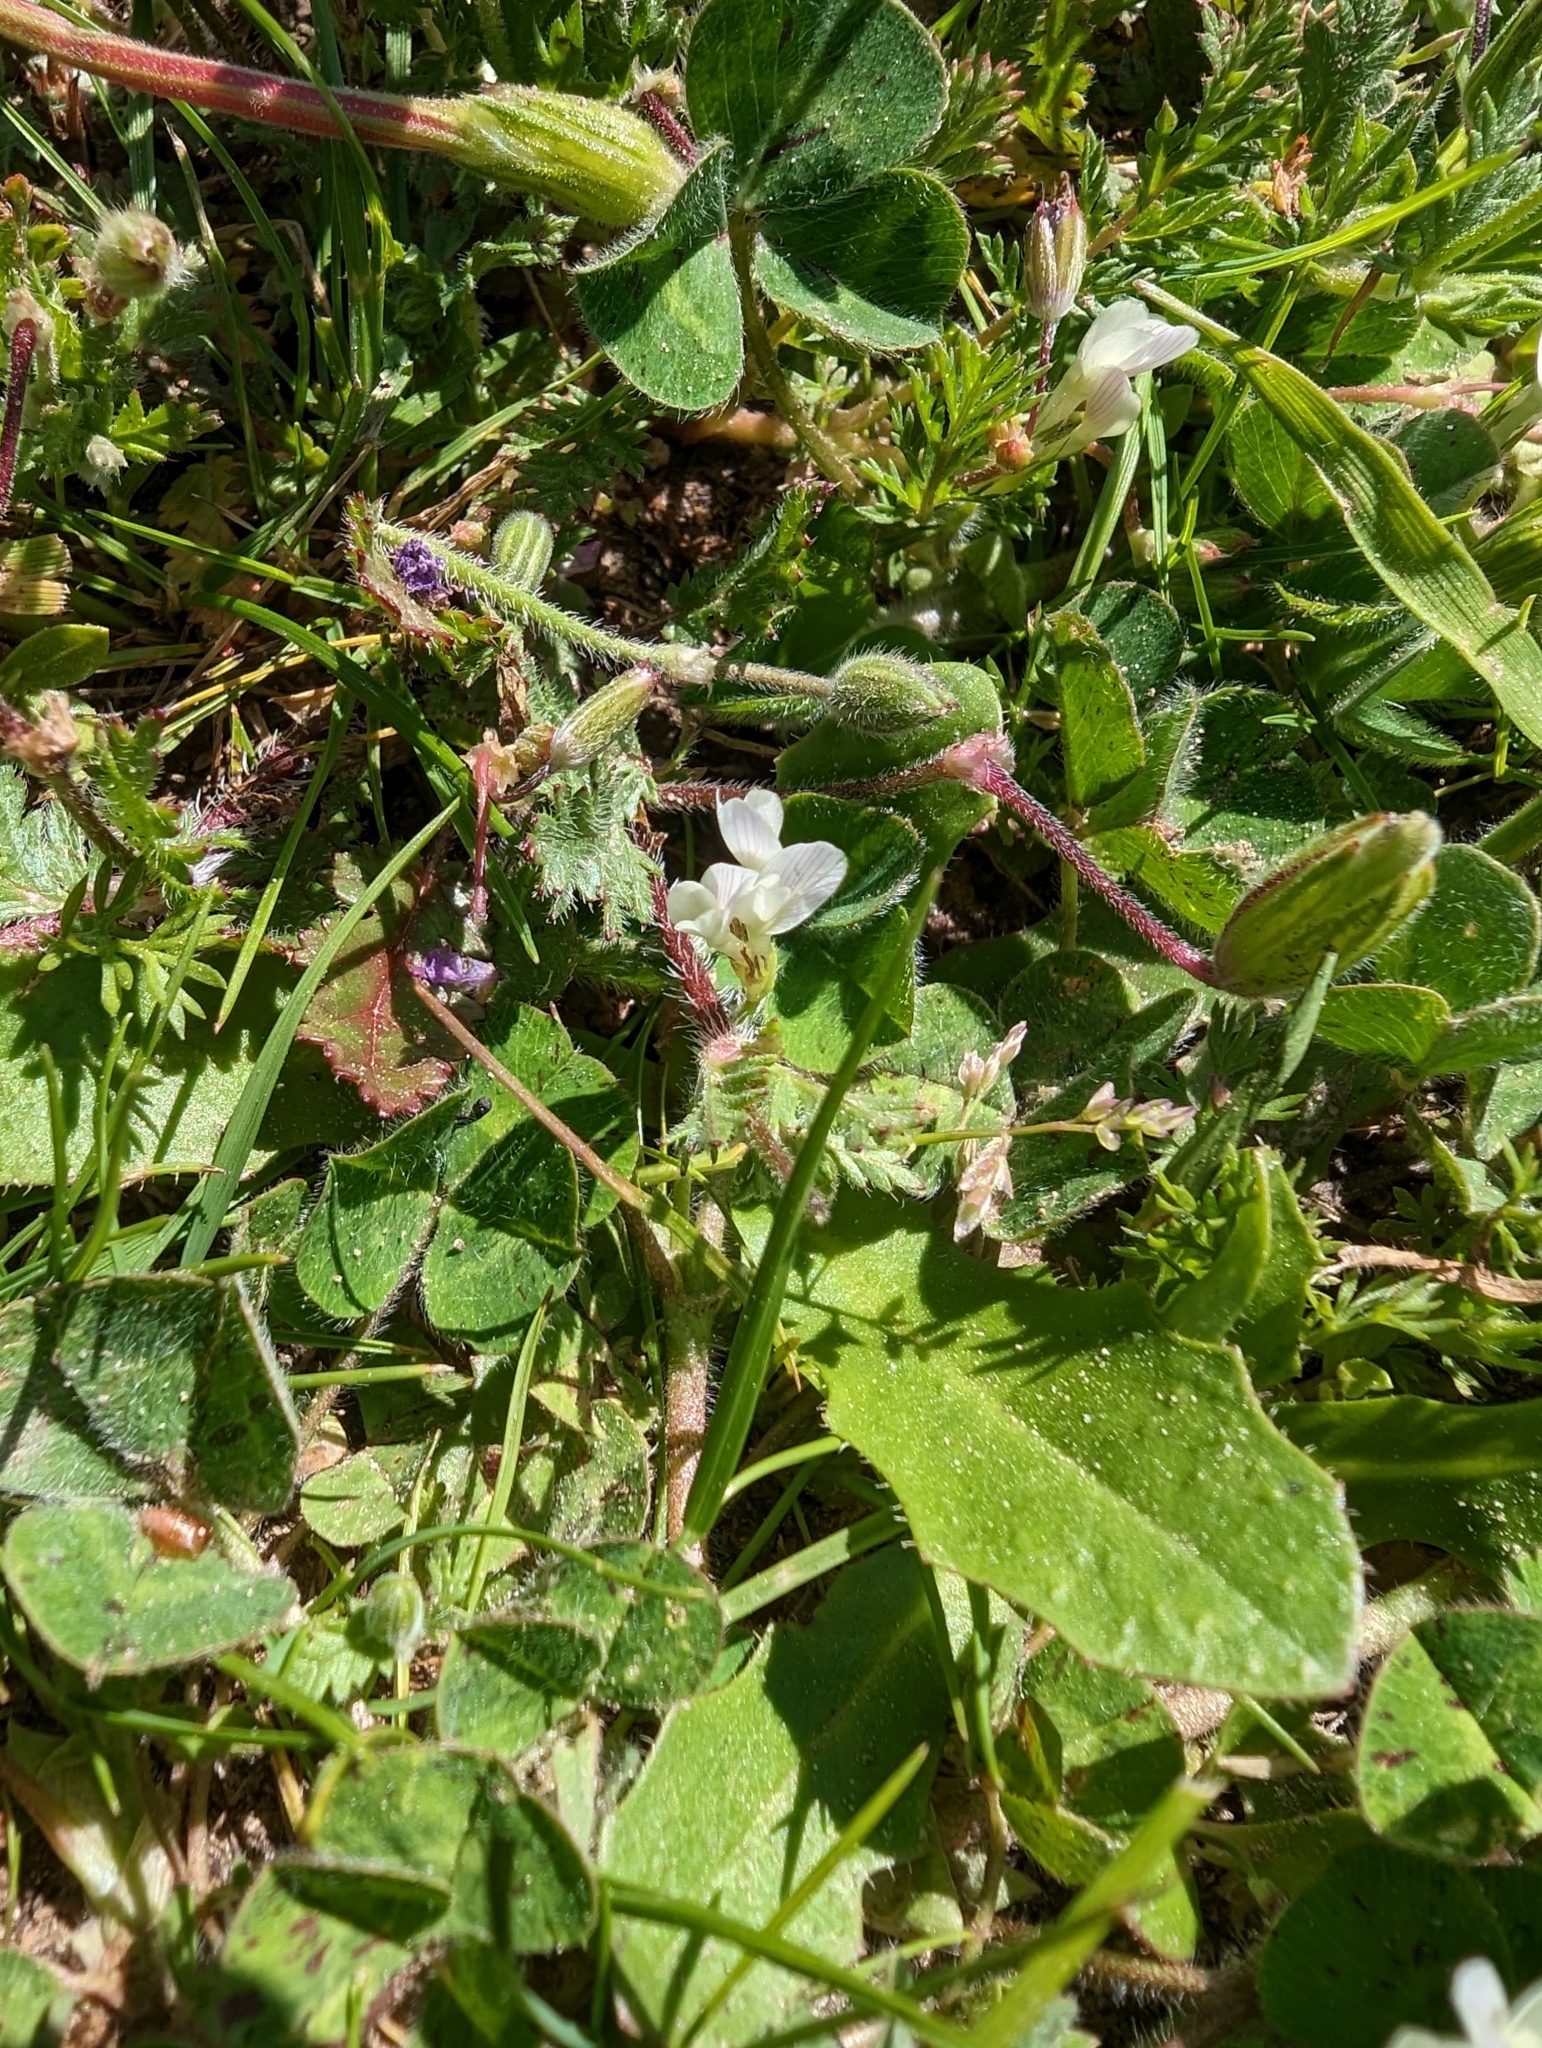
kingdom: Plantae
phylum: Tracheophyta
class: Magnoliopsida
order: Fabales
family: Fabaceae
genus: Trifolium
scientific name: Trifolium subterraneum
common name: Subterranean clover
